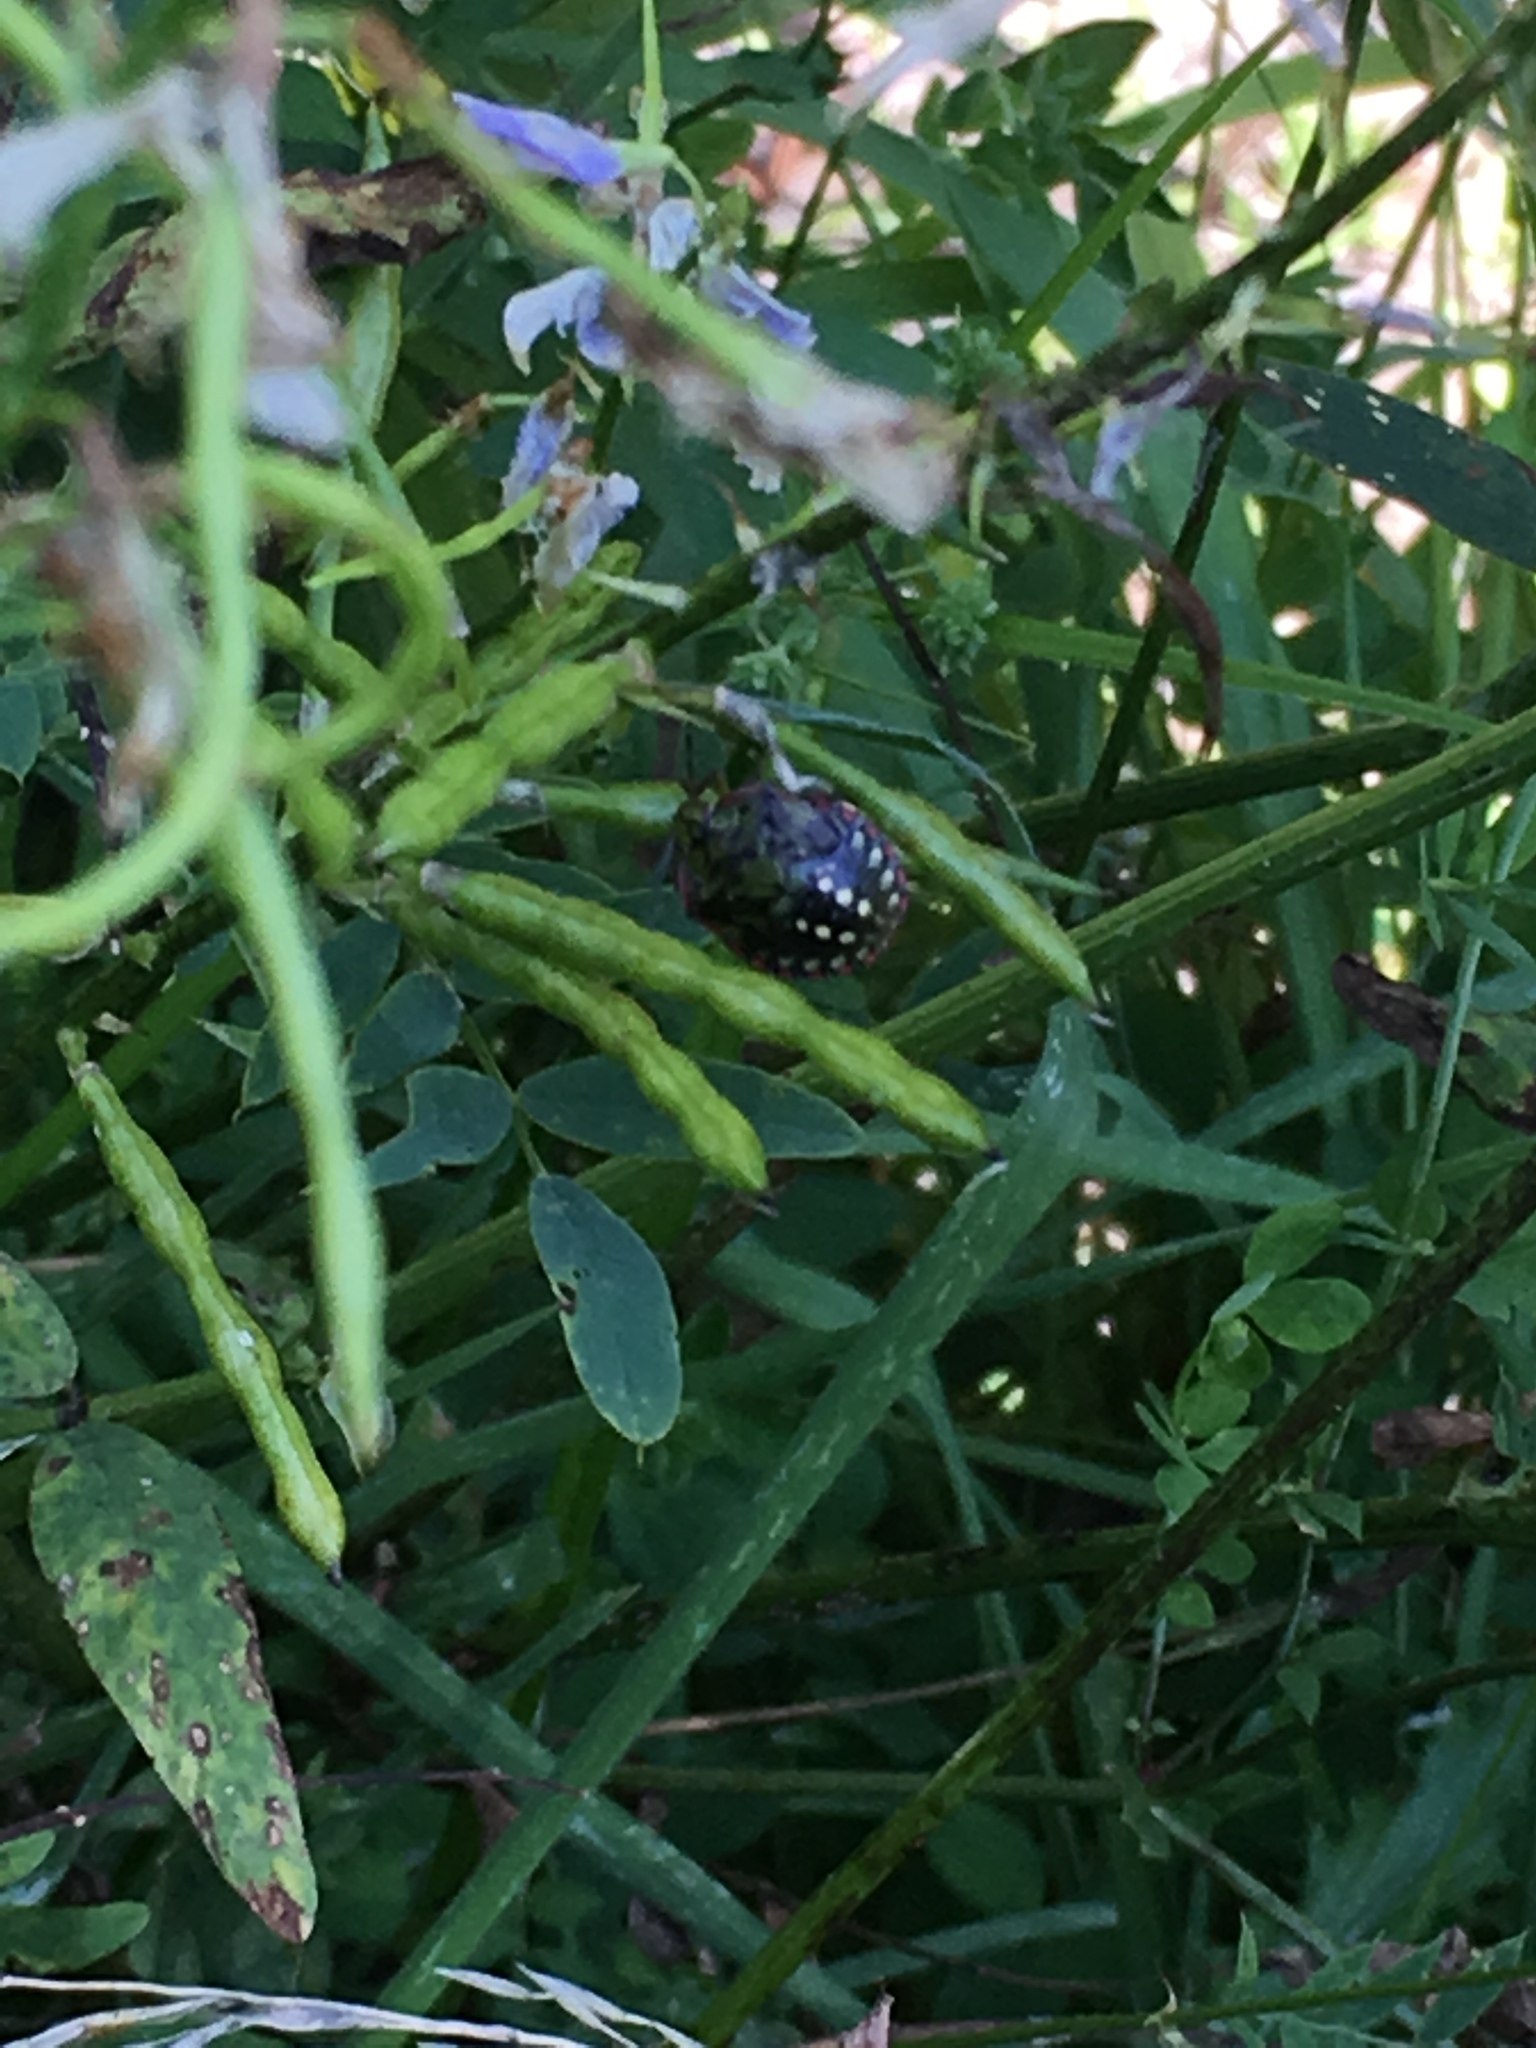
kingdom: Animalia
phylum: Arthropoda
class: Insecta
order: Hemiptera
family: Pentatomidae
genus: Nezara
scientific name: Nezara viridula
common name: Southern green stink bug
